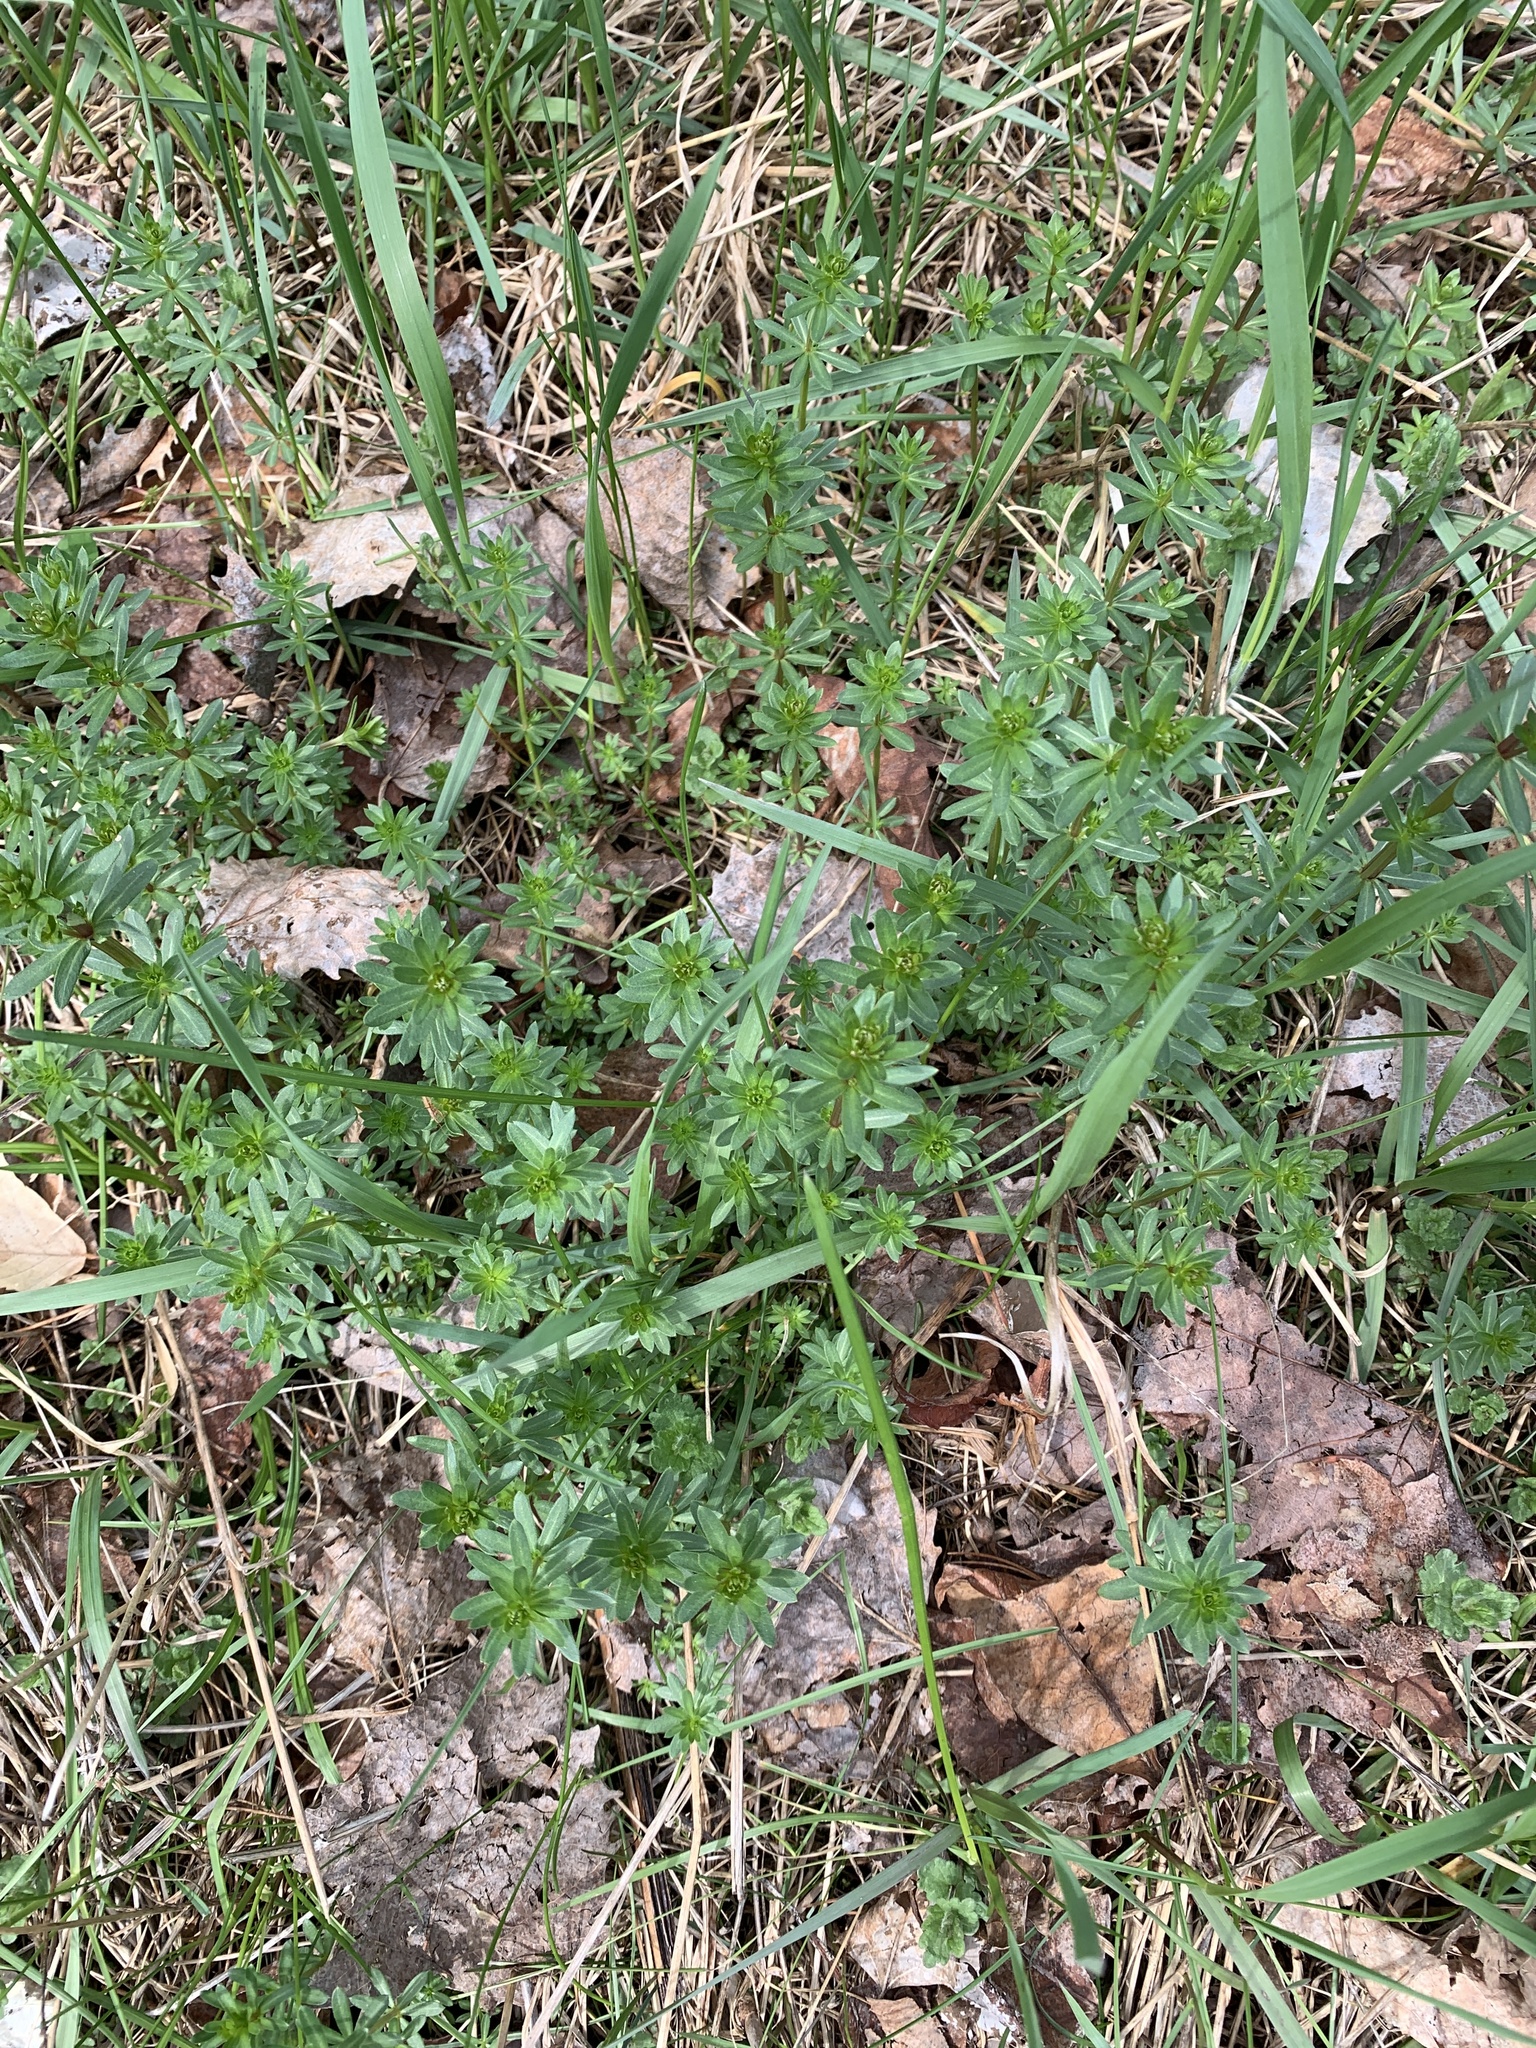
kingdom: Plantae
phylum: Tracheophyta
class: Magnoliopsida
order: Gentianales
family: Rubiaceae
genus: Galium
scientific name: Galium mollugo
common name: Hedge bedstraw
